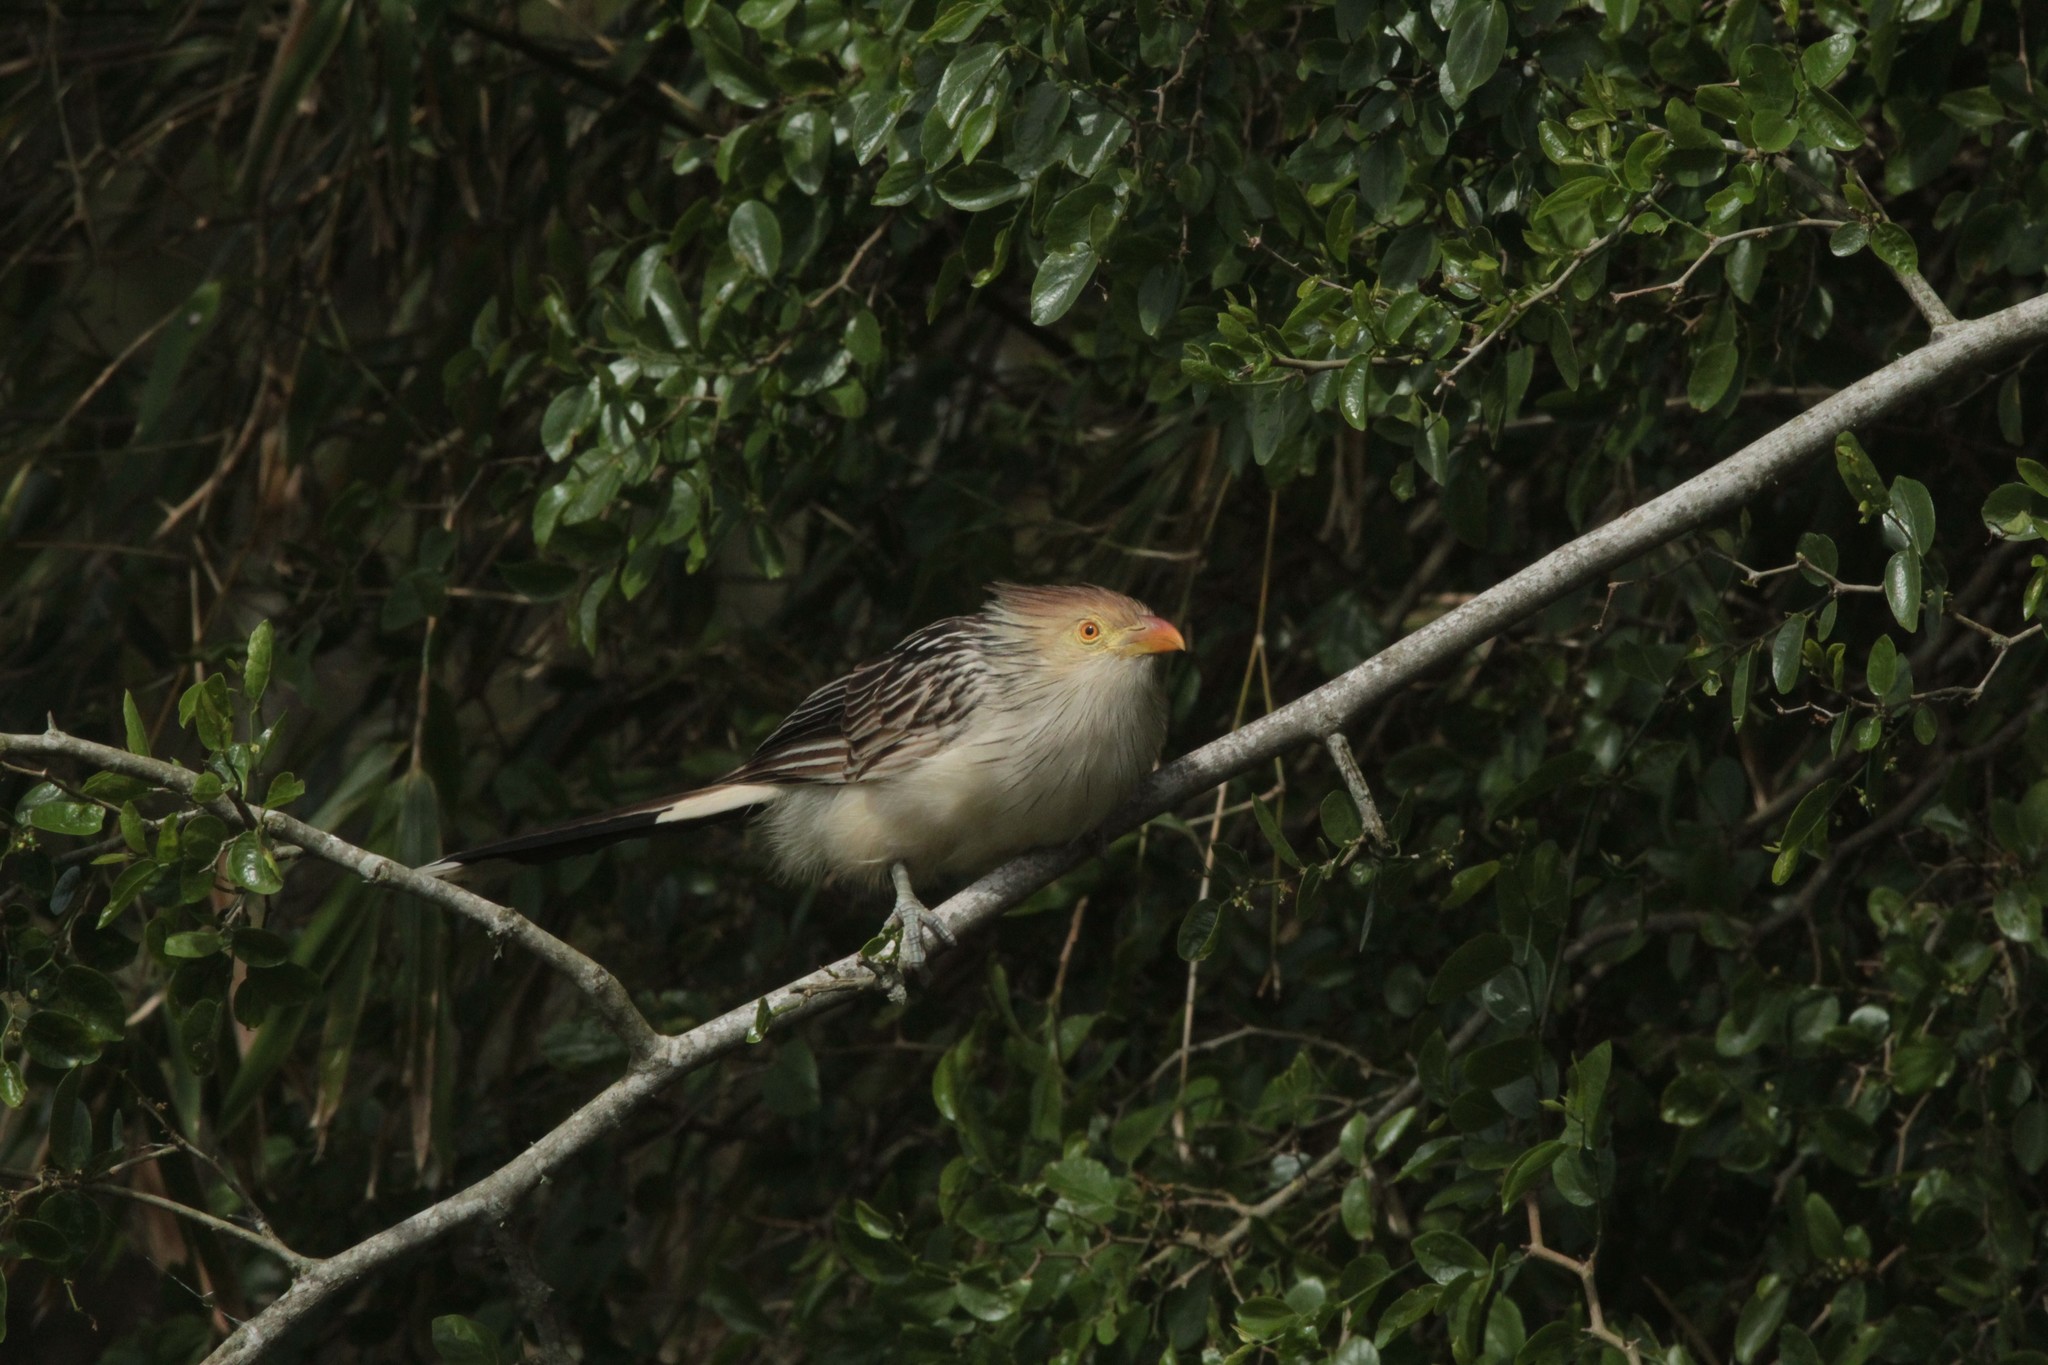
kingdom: Animalia
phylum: Chordata
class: Aves
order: Cuculiformes
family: Cuculidae
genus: Guira
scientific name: Guira guira
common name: Guira cuckoo
